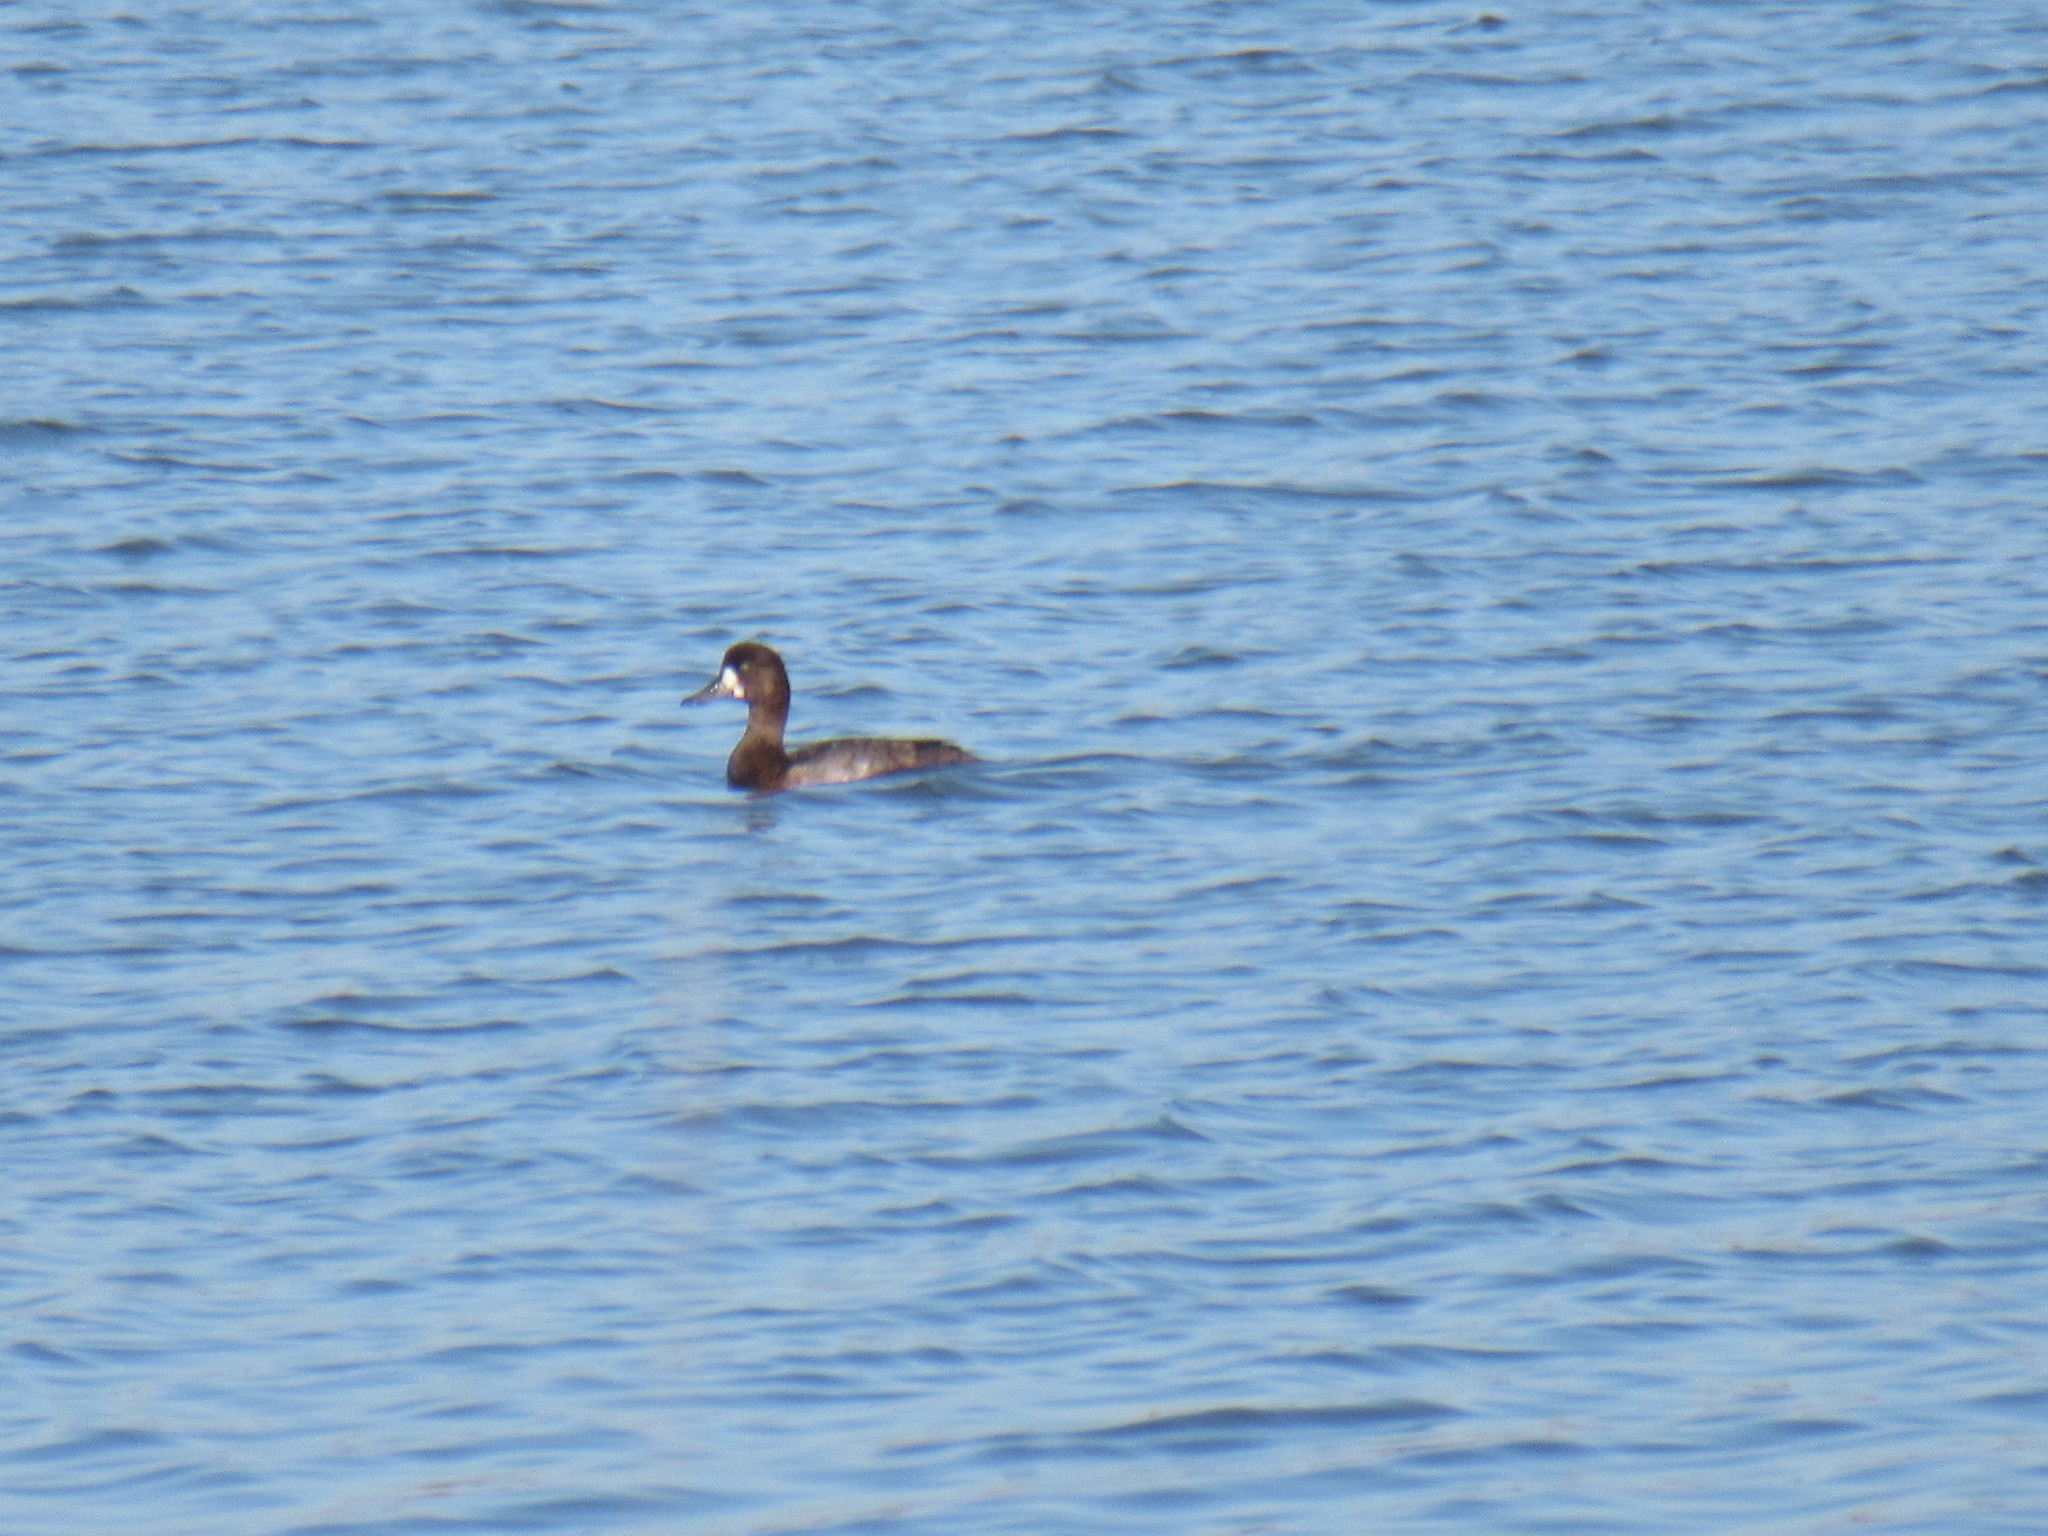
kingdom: Animalia
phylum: Chordata
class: Aves
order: Anseriformes
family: Anatidae
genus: Aythya
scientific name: Aythya marila
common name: Greater scaup
